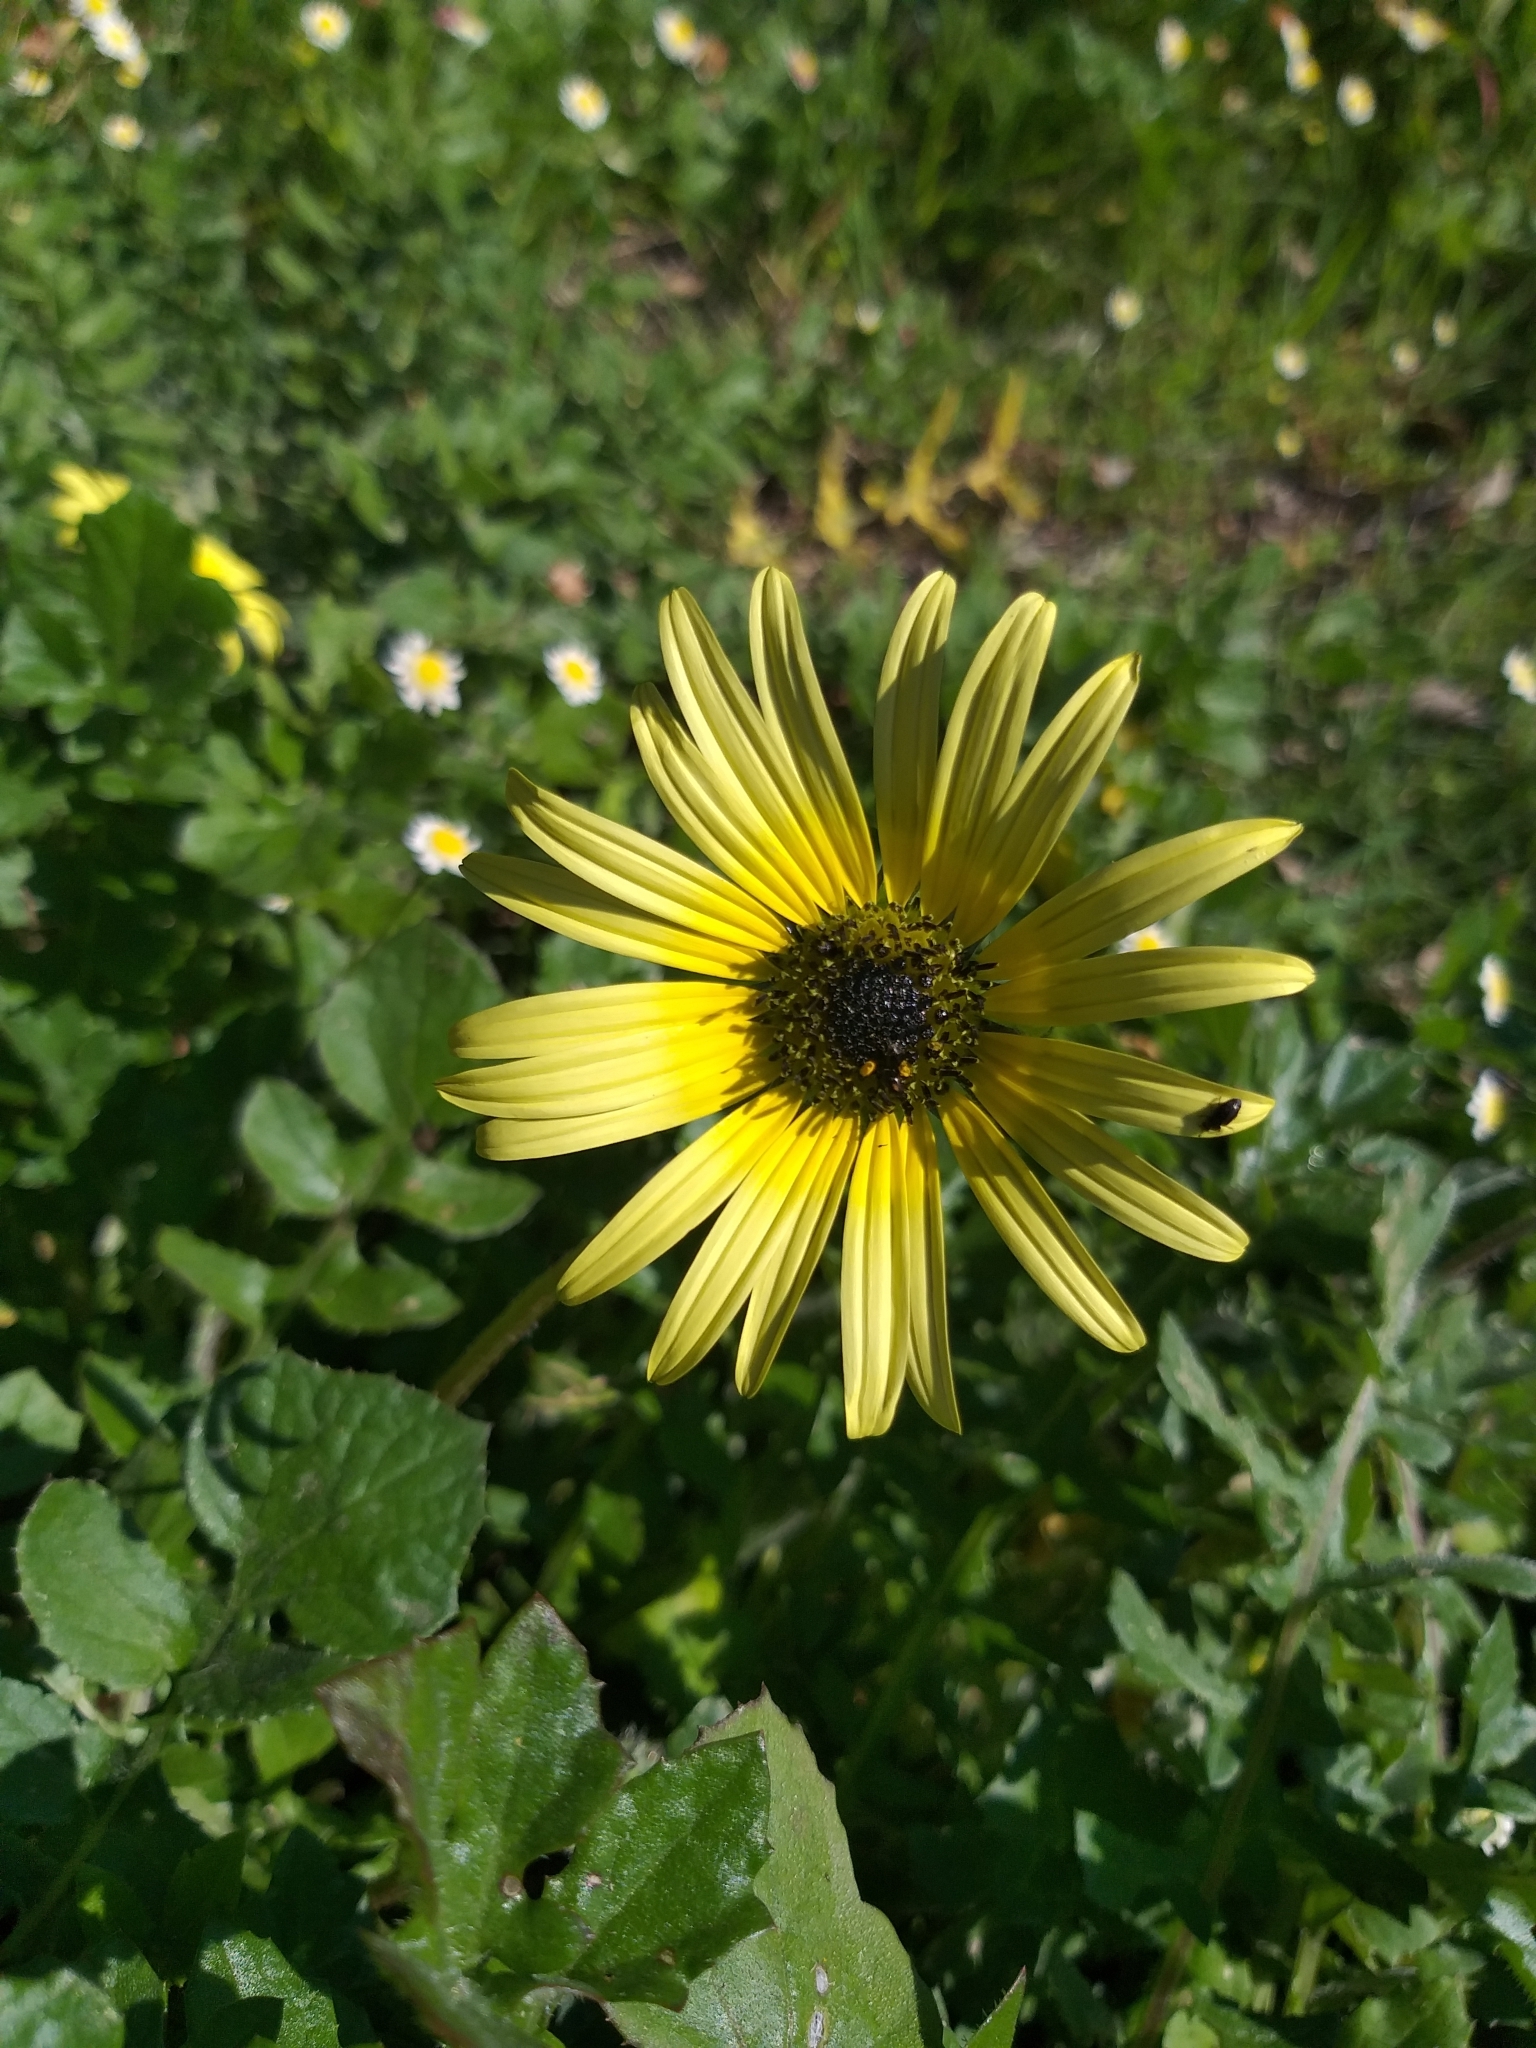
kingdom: Plantae
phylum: Tracheophyta
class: Magnoliopsida
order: Asterales
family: Asteraceae
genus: Arctotheca
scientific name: Arctotheca calendula
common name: Capeweed
